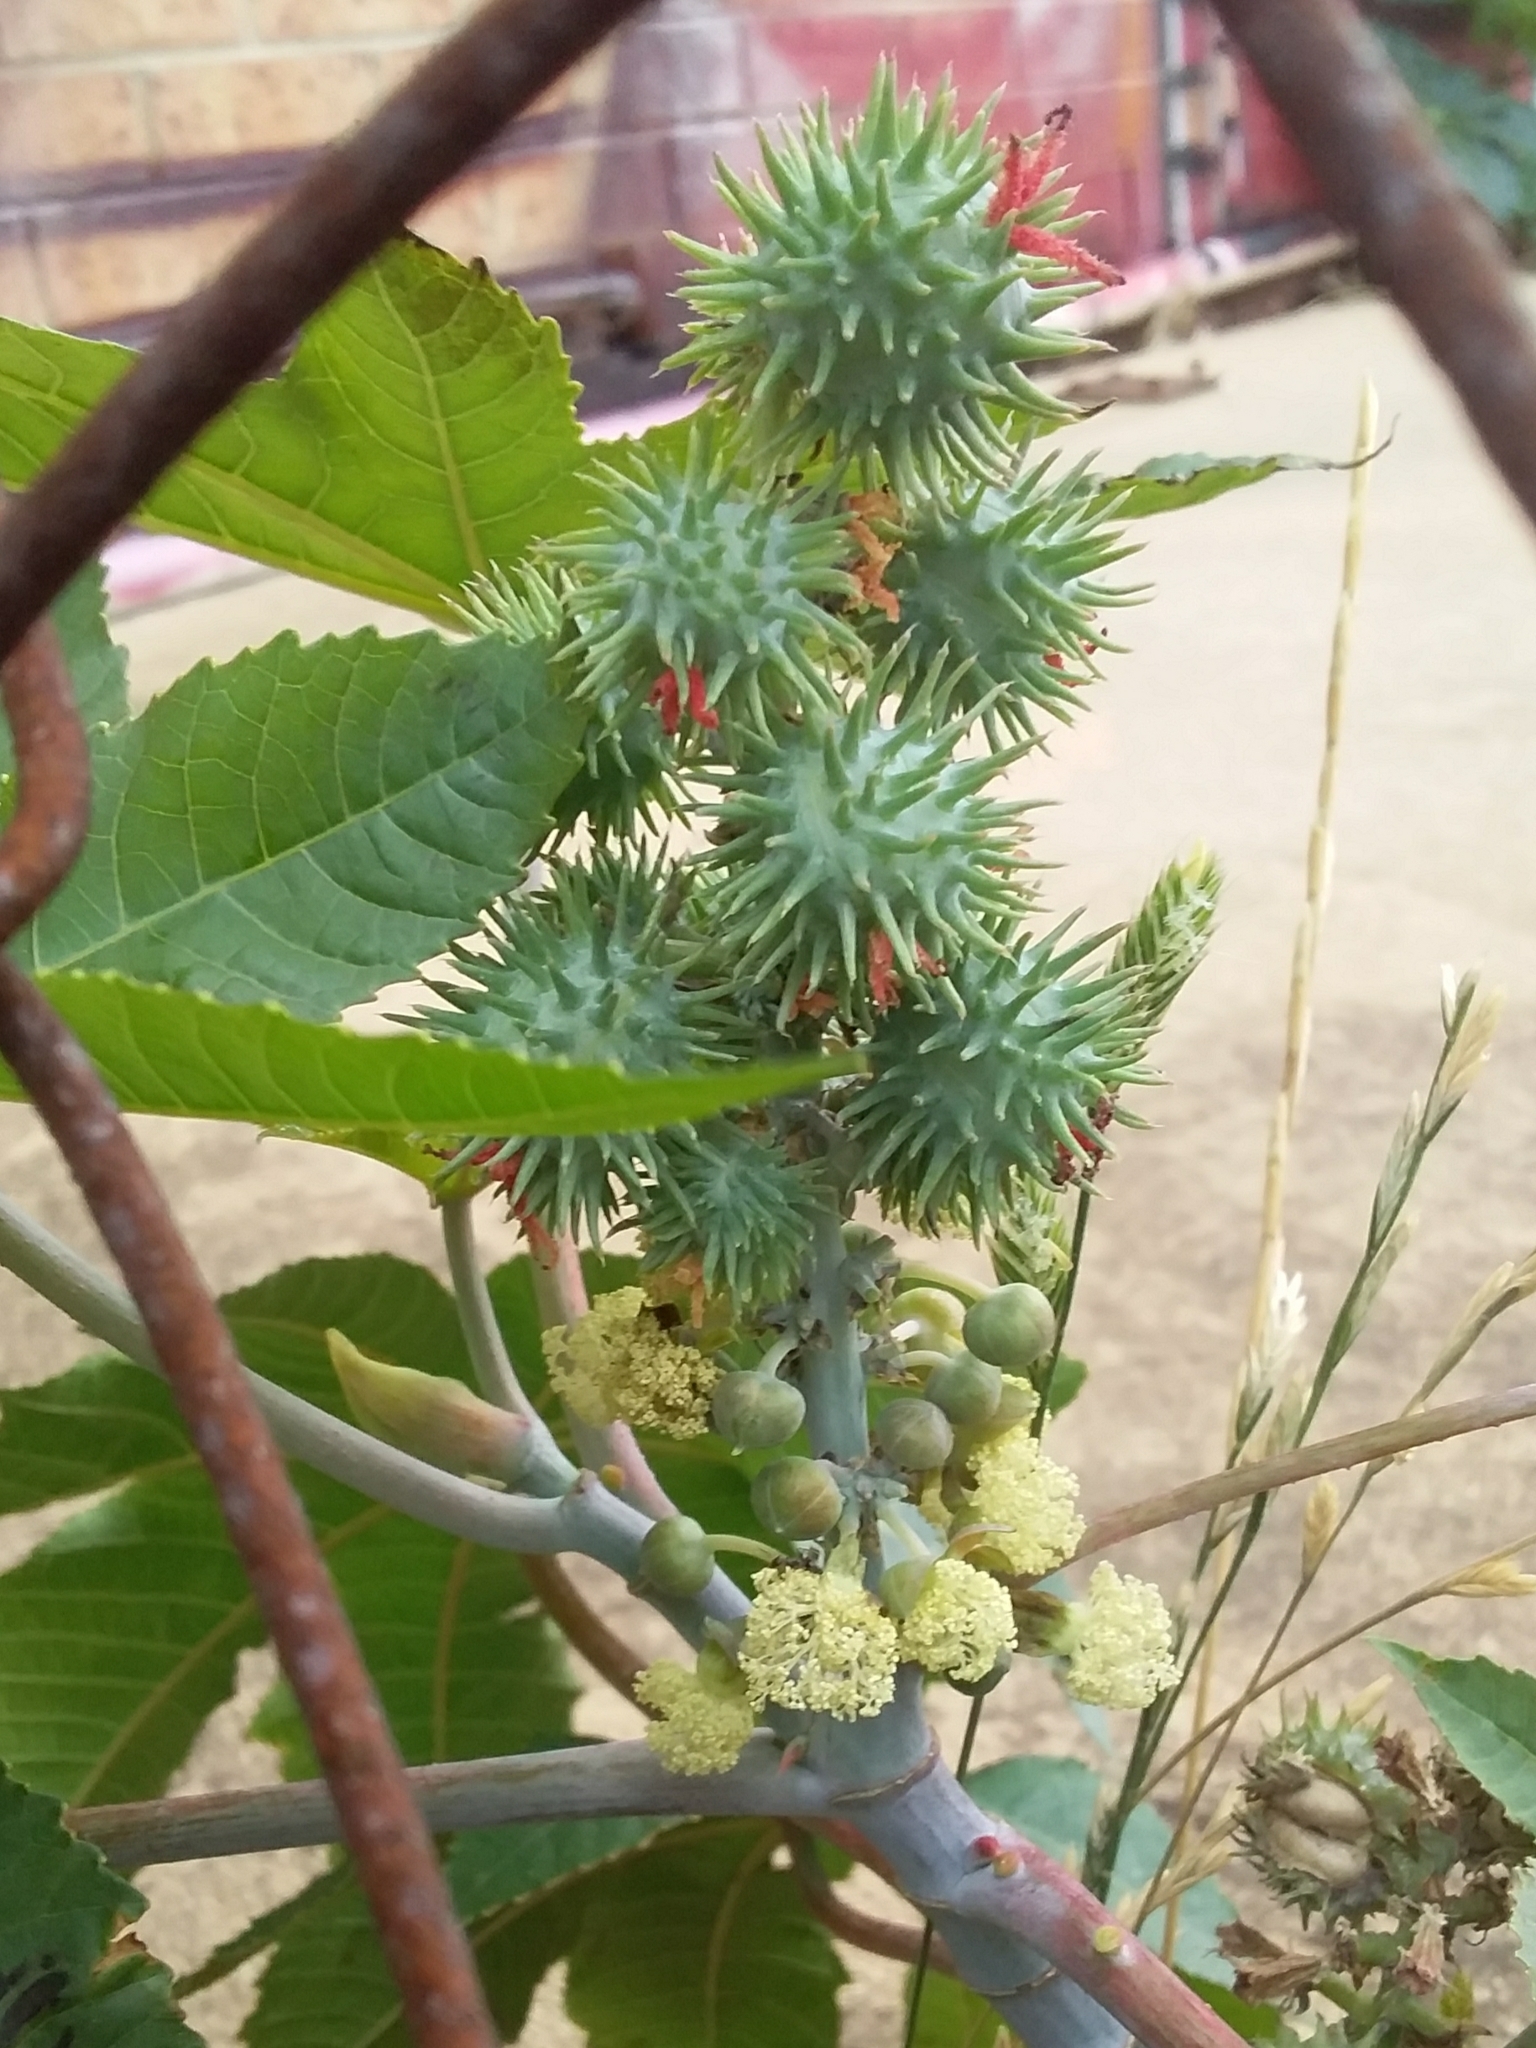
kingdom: Plantae
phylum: Tracheophyta
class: Magnoliopsida
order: Malpighiales
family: Euphorbiaceae
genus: Ricinus
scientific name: Ricinus communis
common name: Castor-oil-plant
